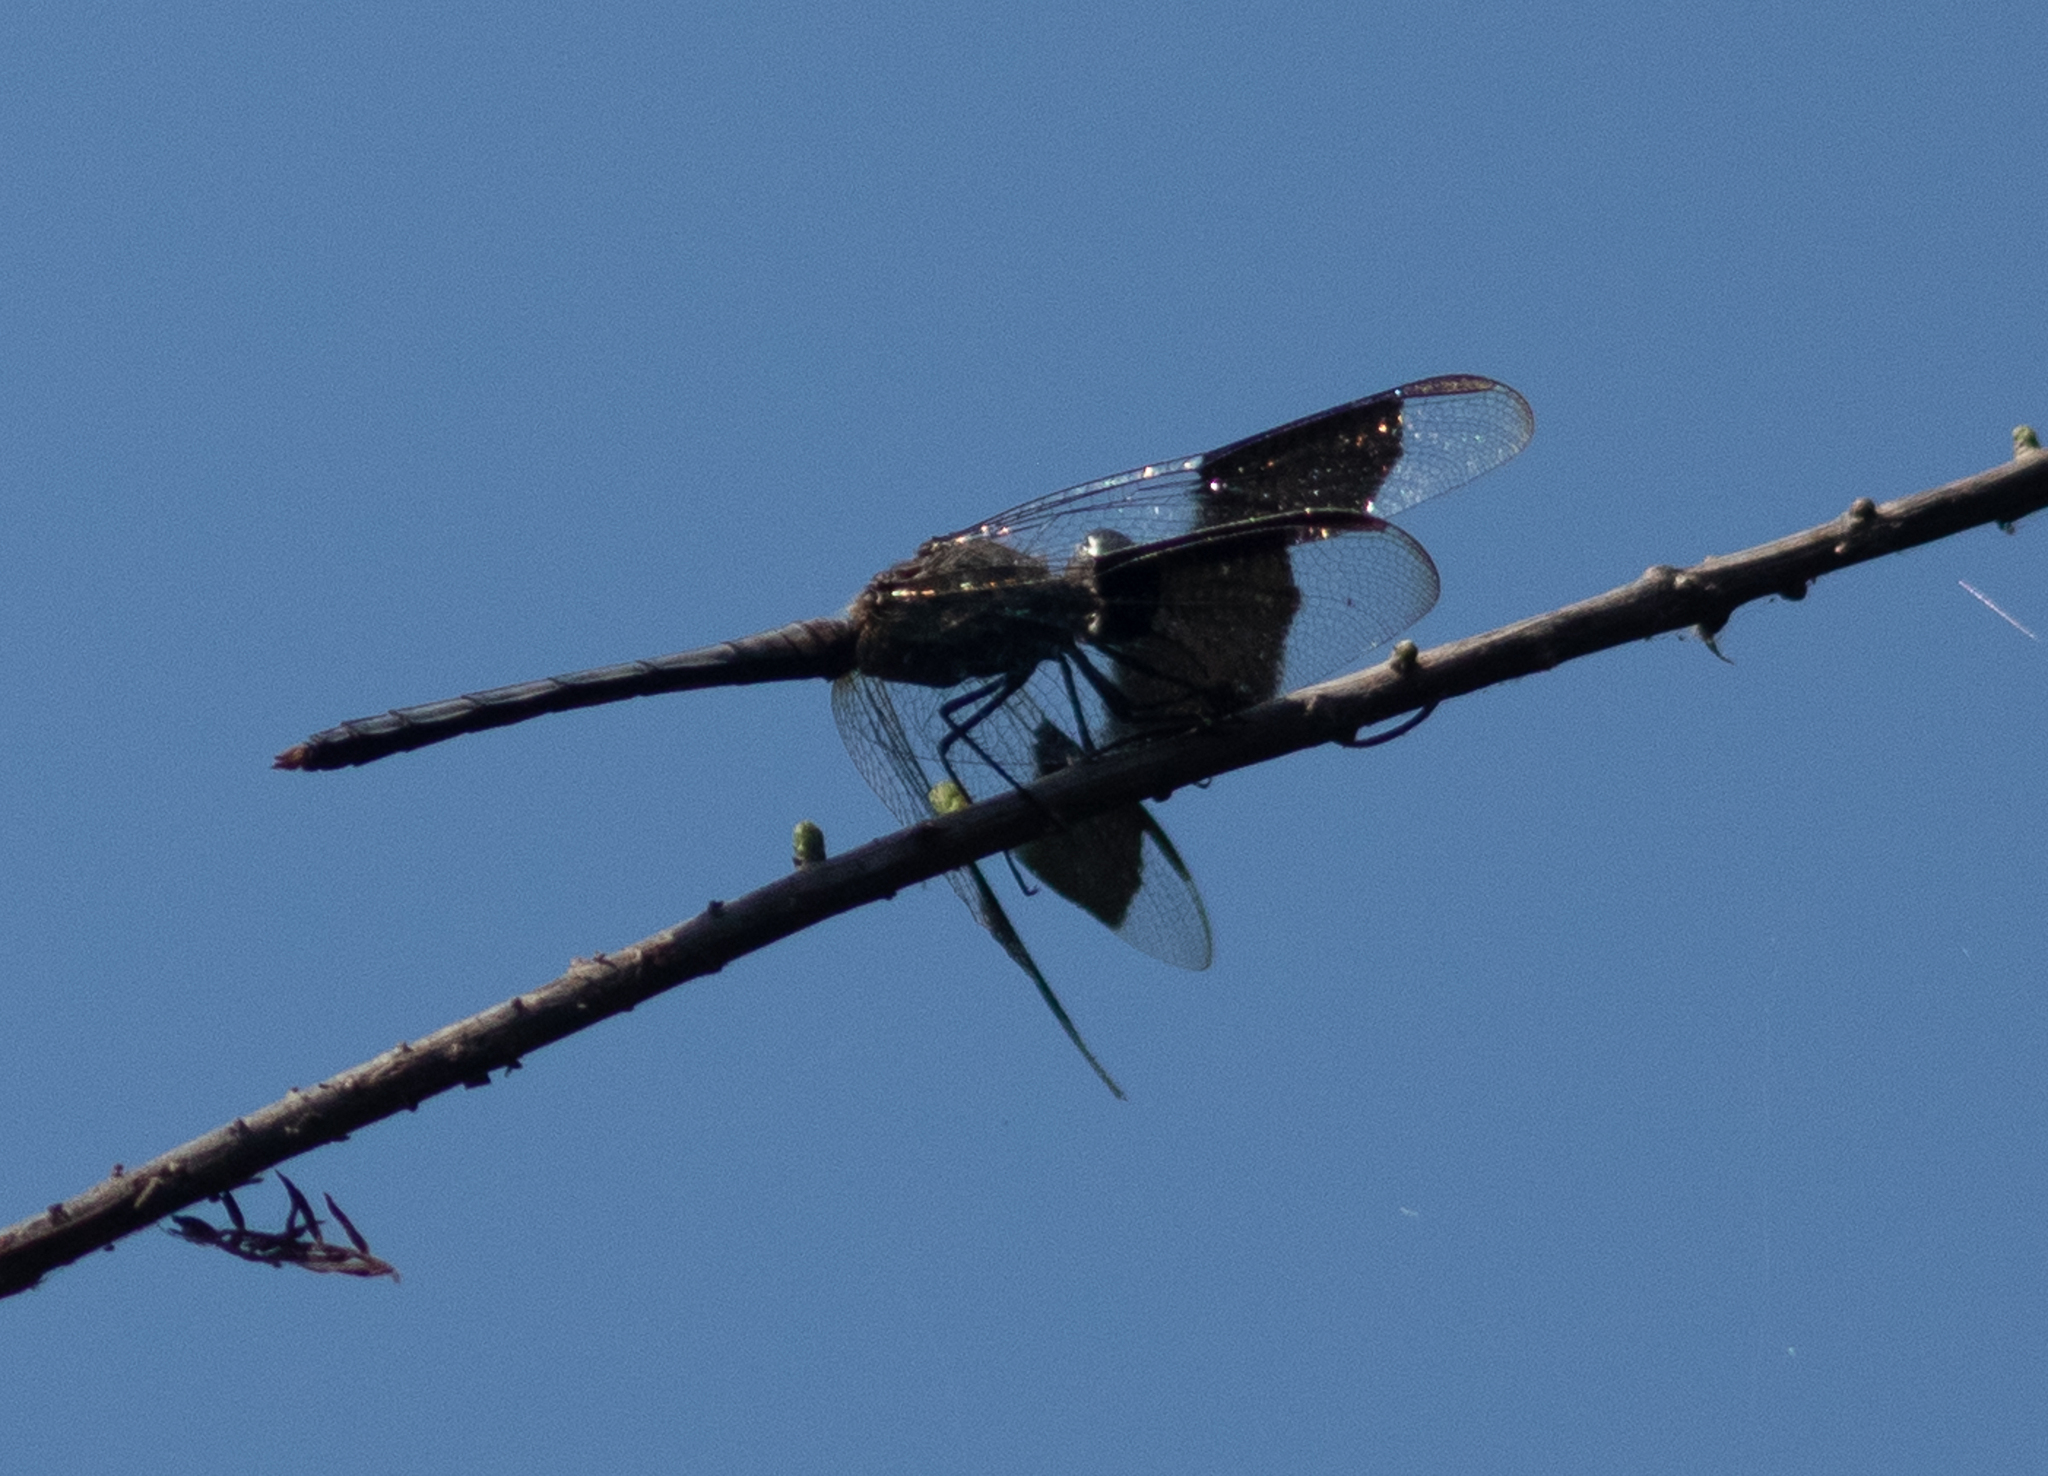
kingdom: Animalia
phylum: Arthropoda
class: Insecta
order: Odonata
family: Libellulidae
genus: Erythrodiplax
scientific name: Erythrodiplax umbrata
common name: Band-winged dragonlet
